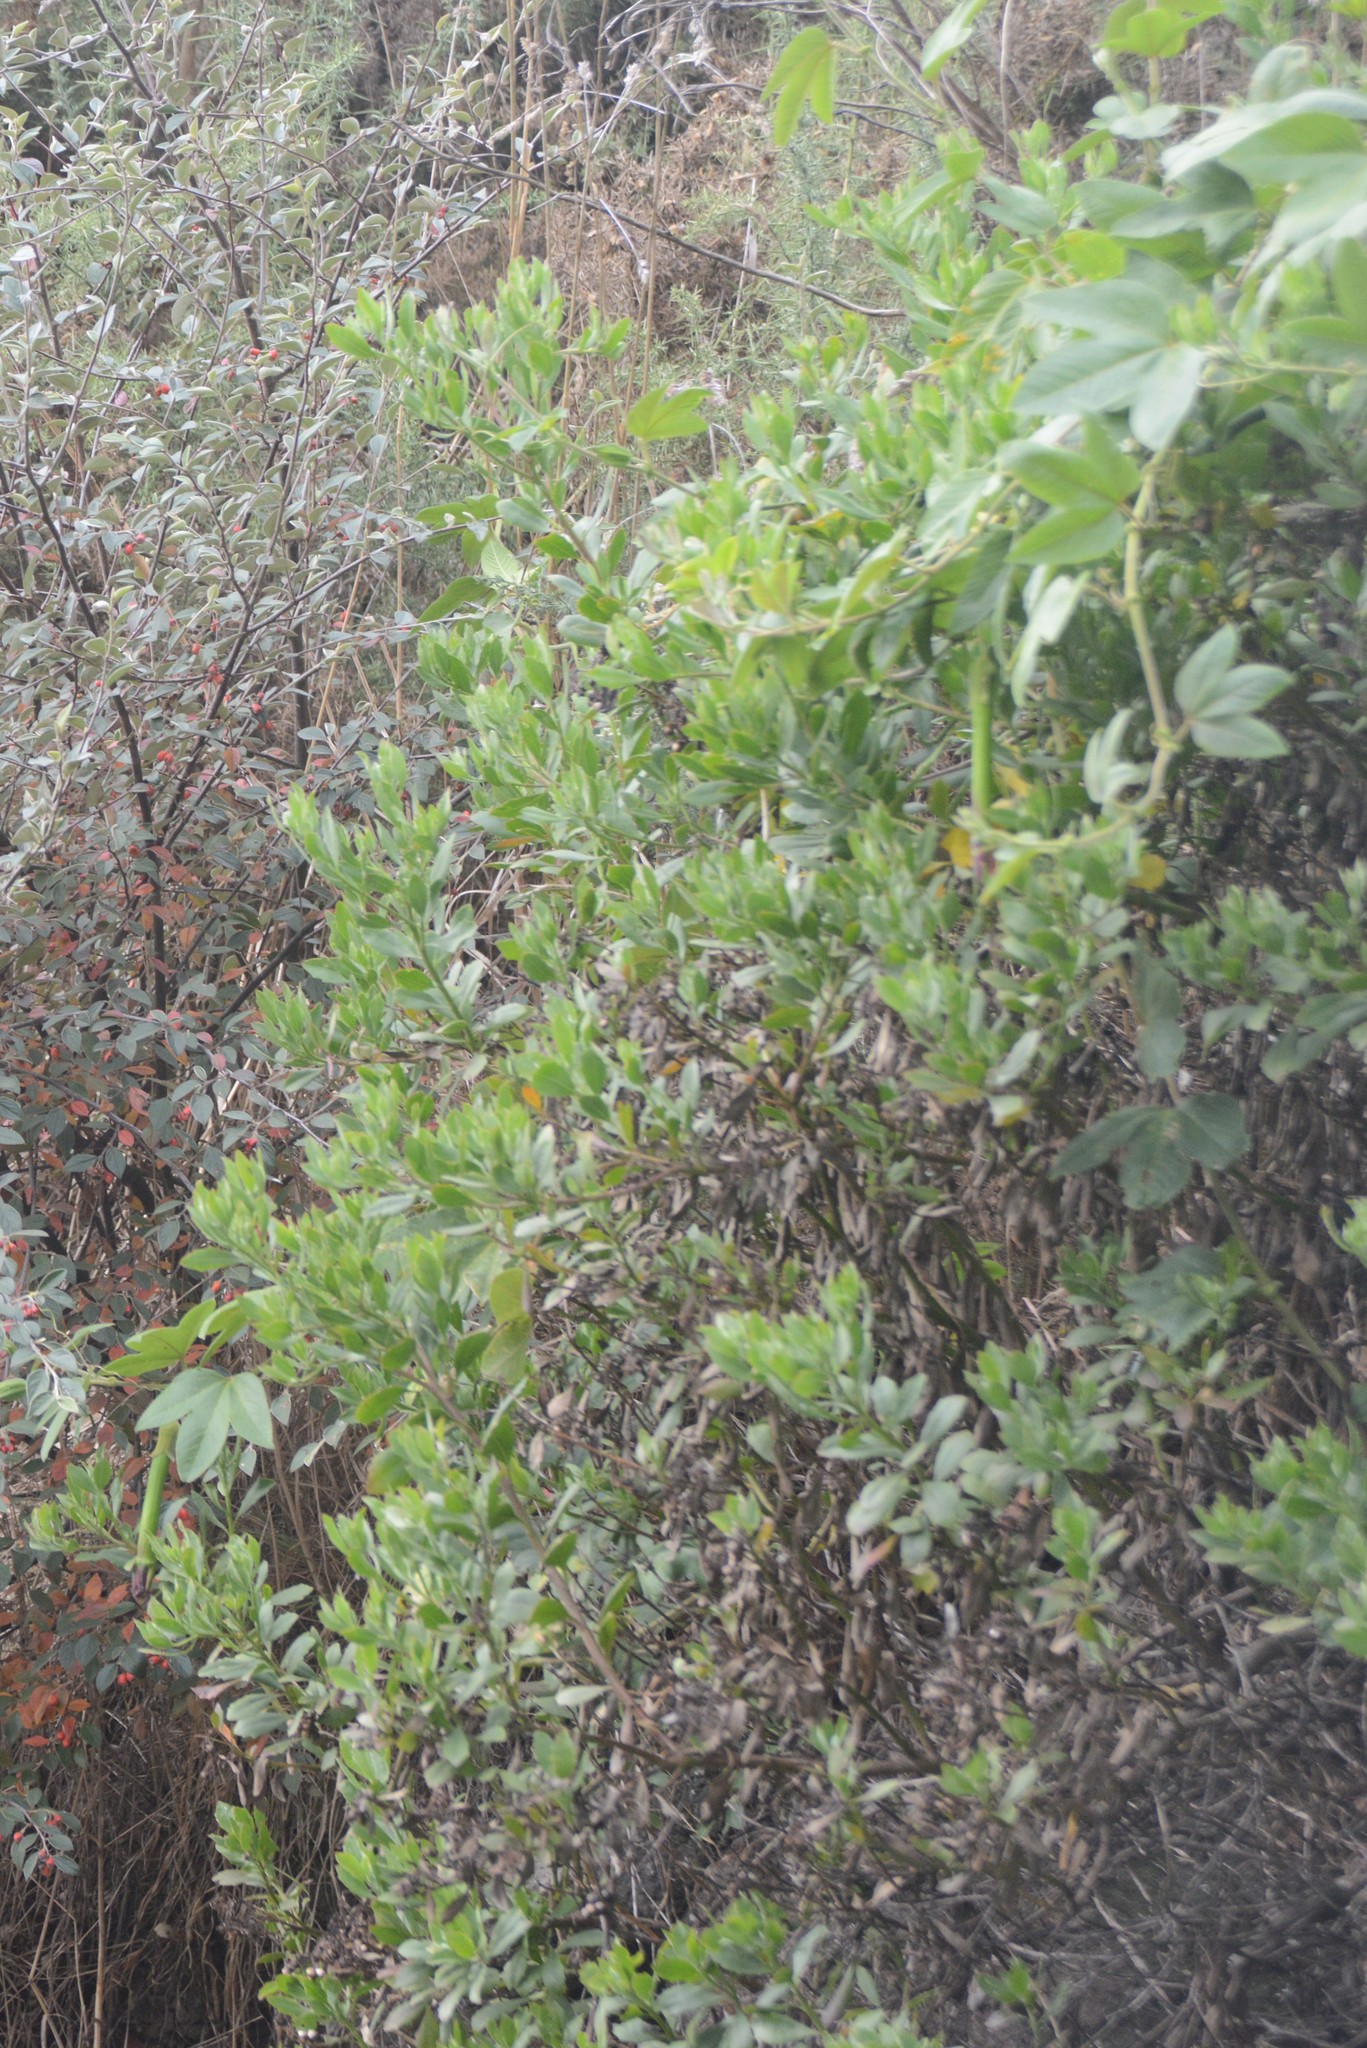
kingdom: Plantae
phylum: Tracheophyta
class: Magnoliopsida
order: Asterales
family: Asteraceae
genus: Osteospermum
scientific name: Osteospermum moniliferum
